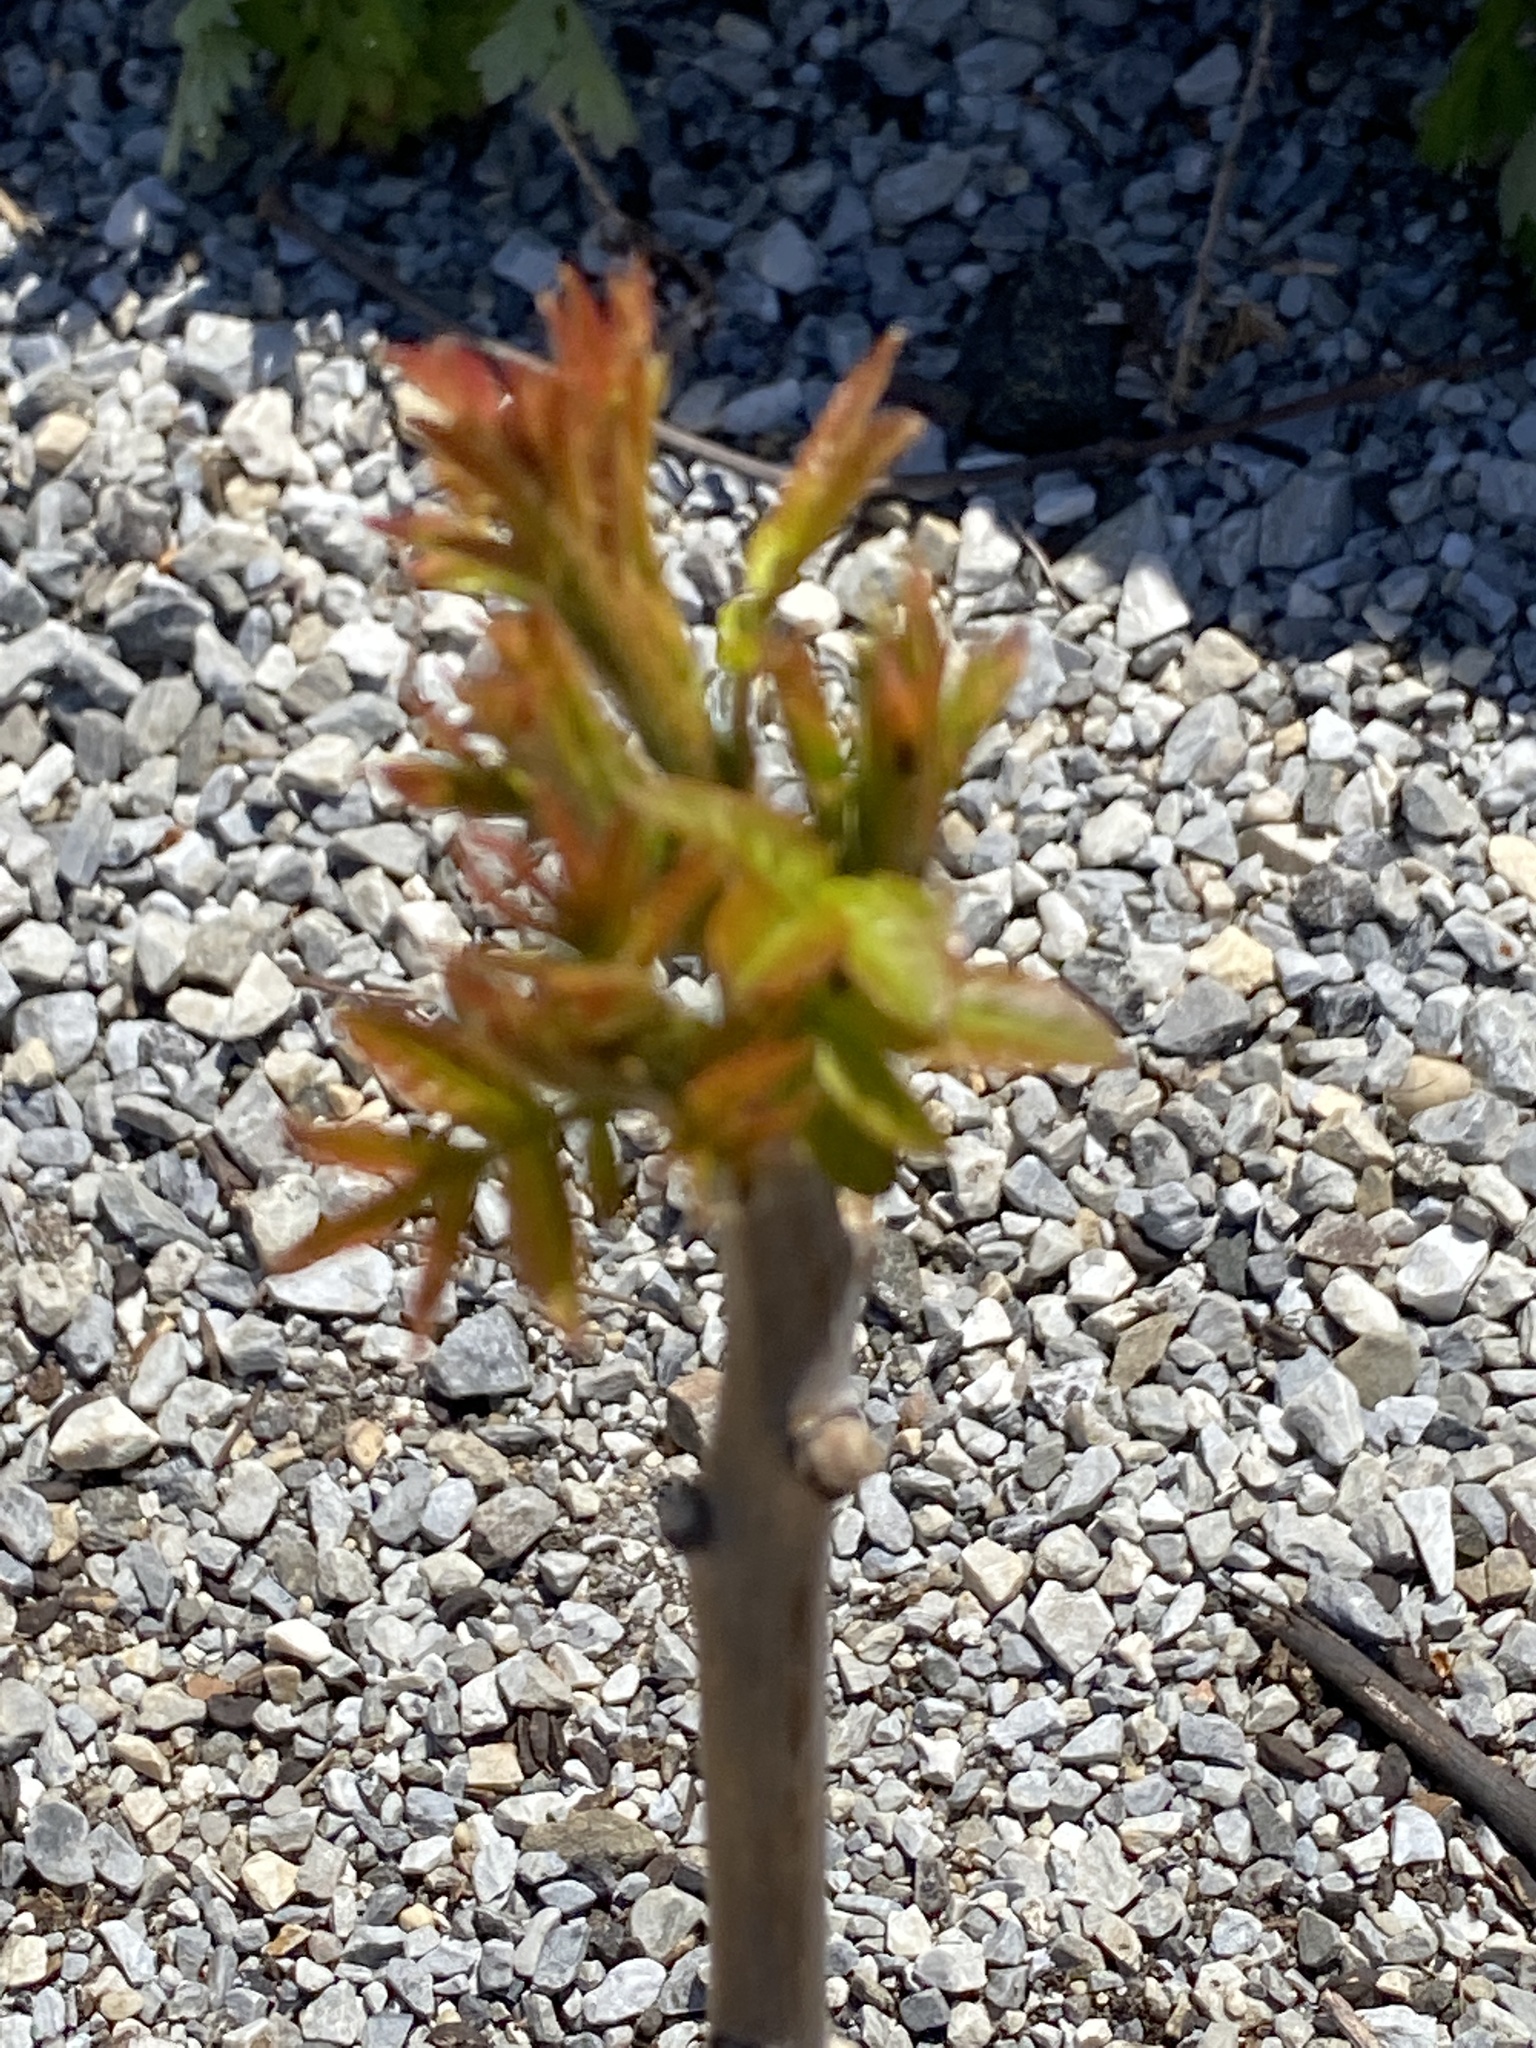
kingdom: Plantae
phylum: Tracheophyta
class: Magnoliopsida
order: Sapindales
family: Anacardiaceae
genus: Rhus
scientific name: Rhus glabra
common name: Scarlet sumac
